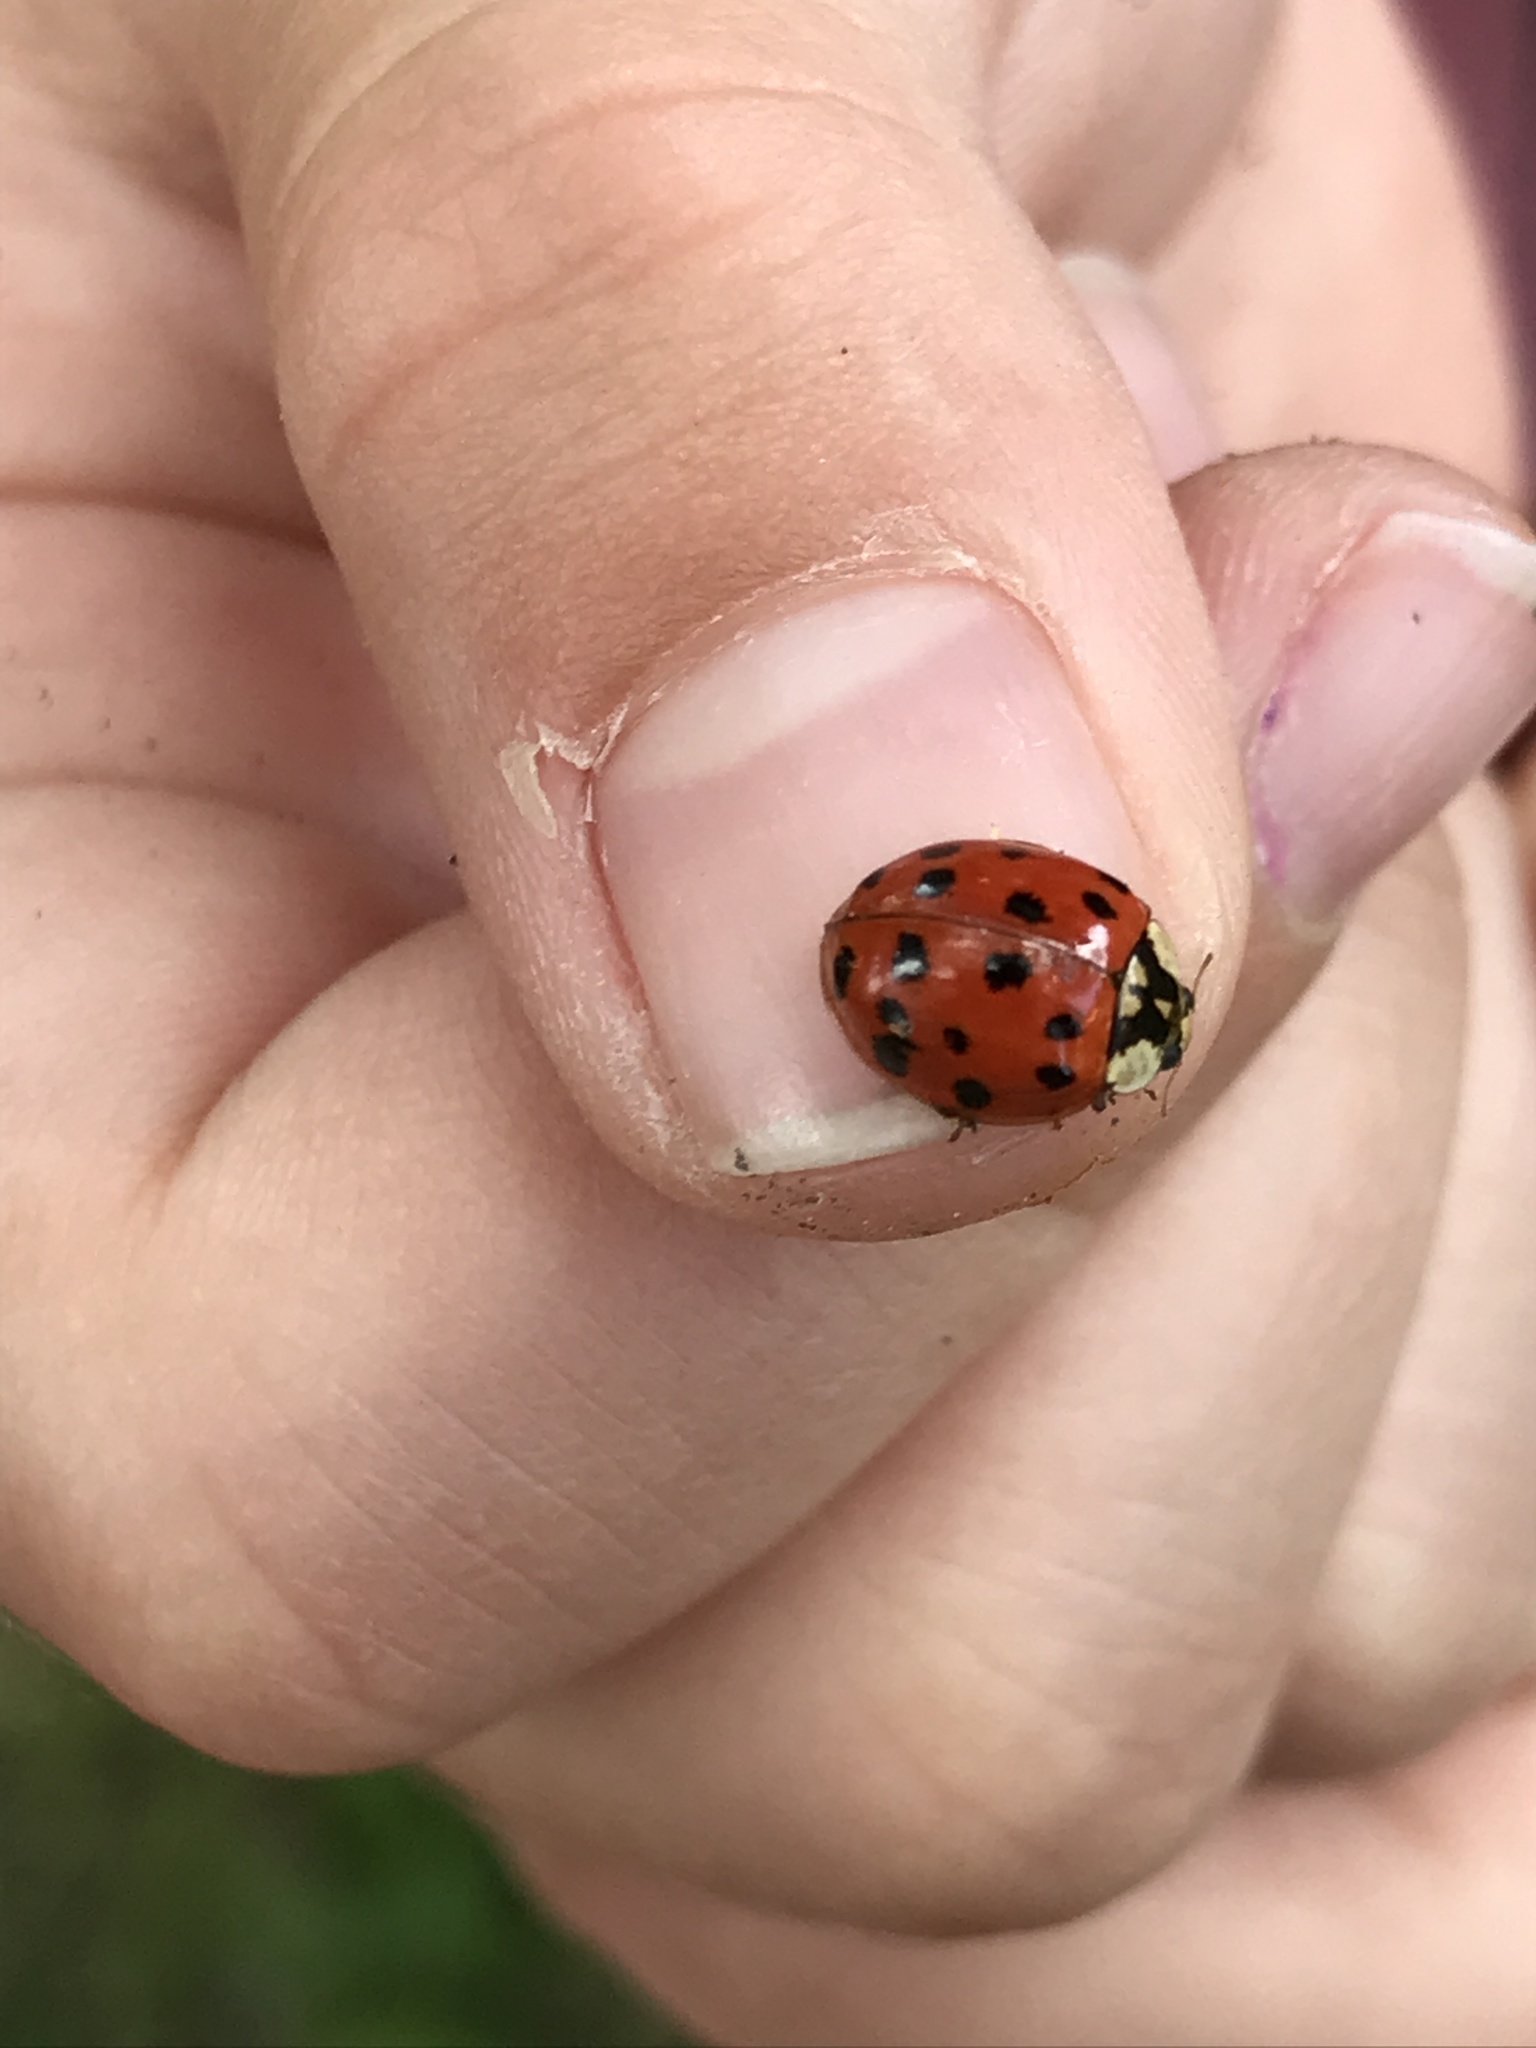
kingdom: Animalia
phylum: Arthropoda
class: Insecta
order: Coleoptera
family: Coccinellidae
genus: Harmonia
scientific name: Harmonia axyridis
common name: Harlequin ladybird
